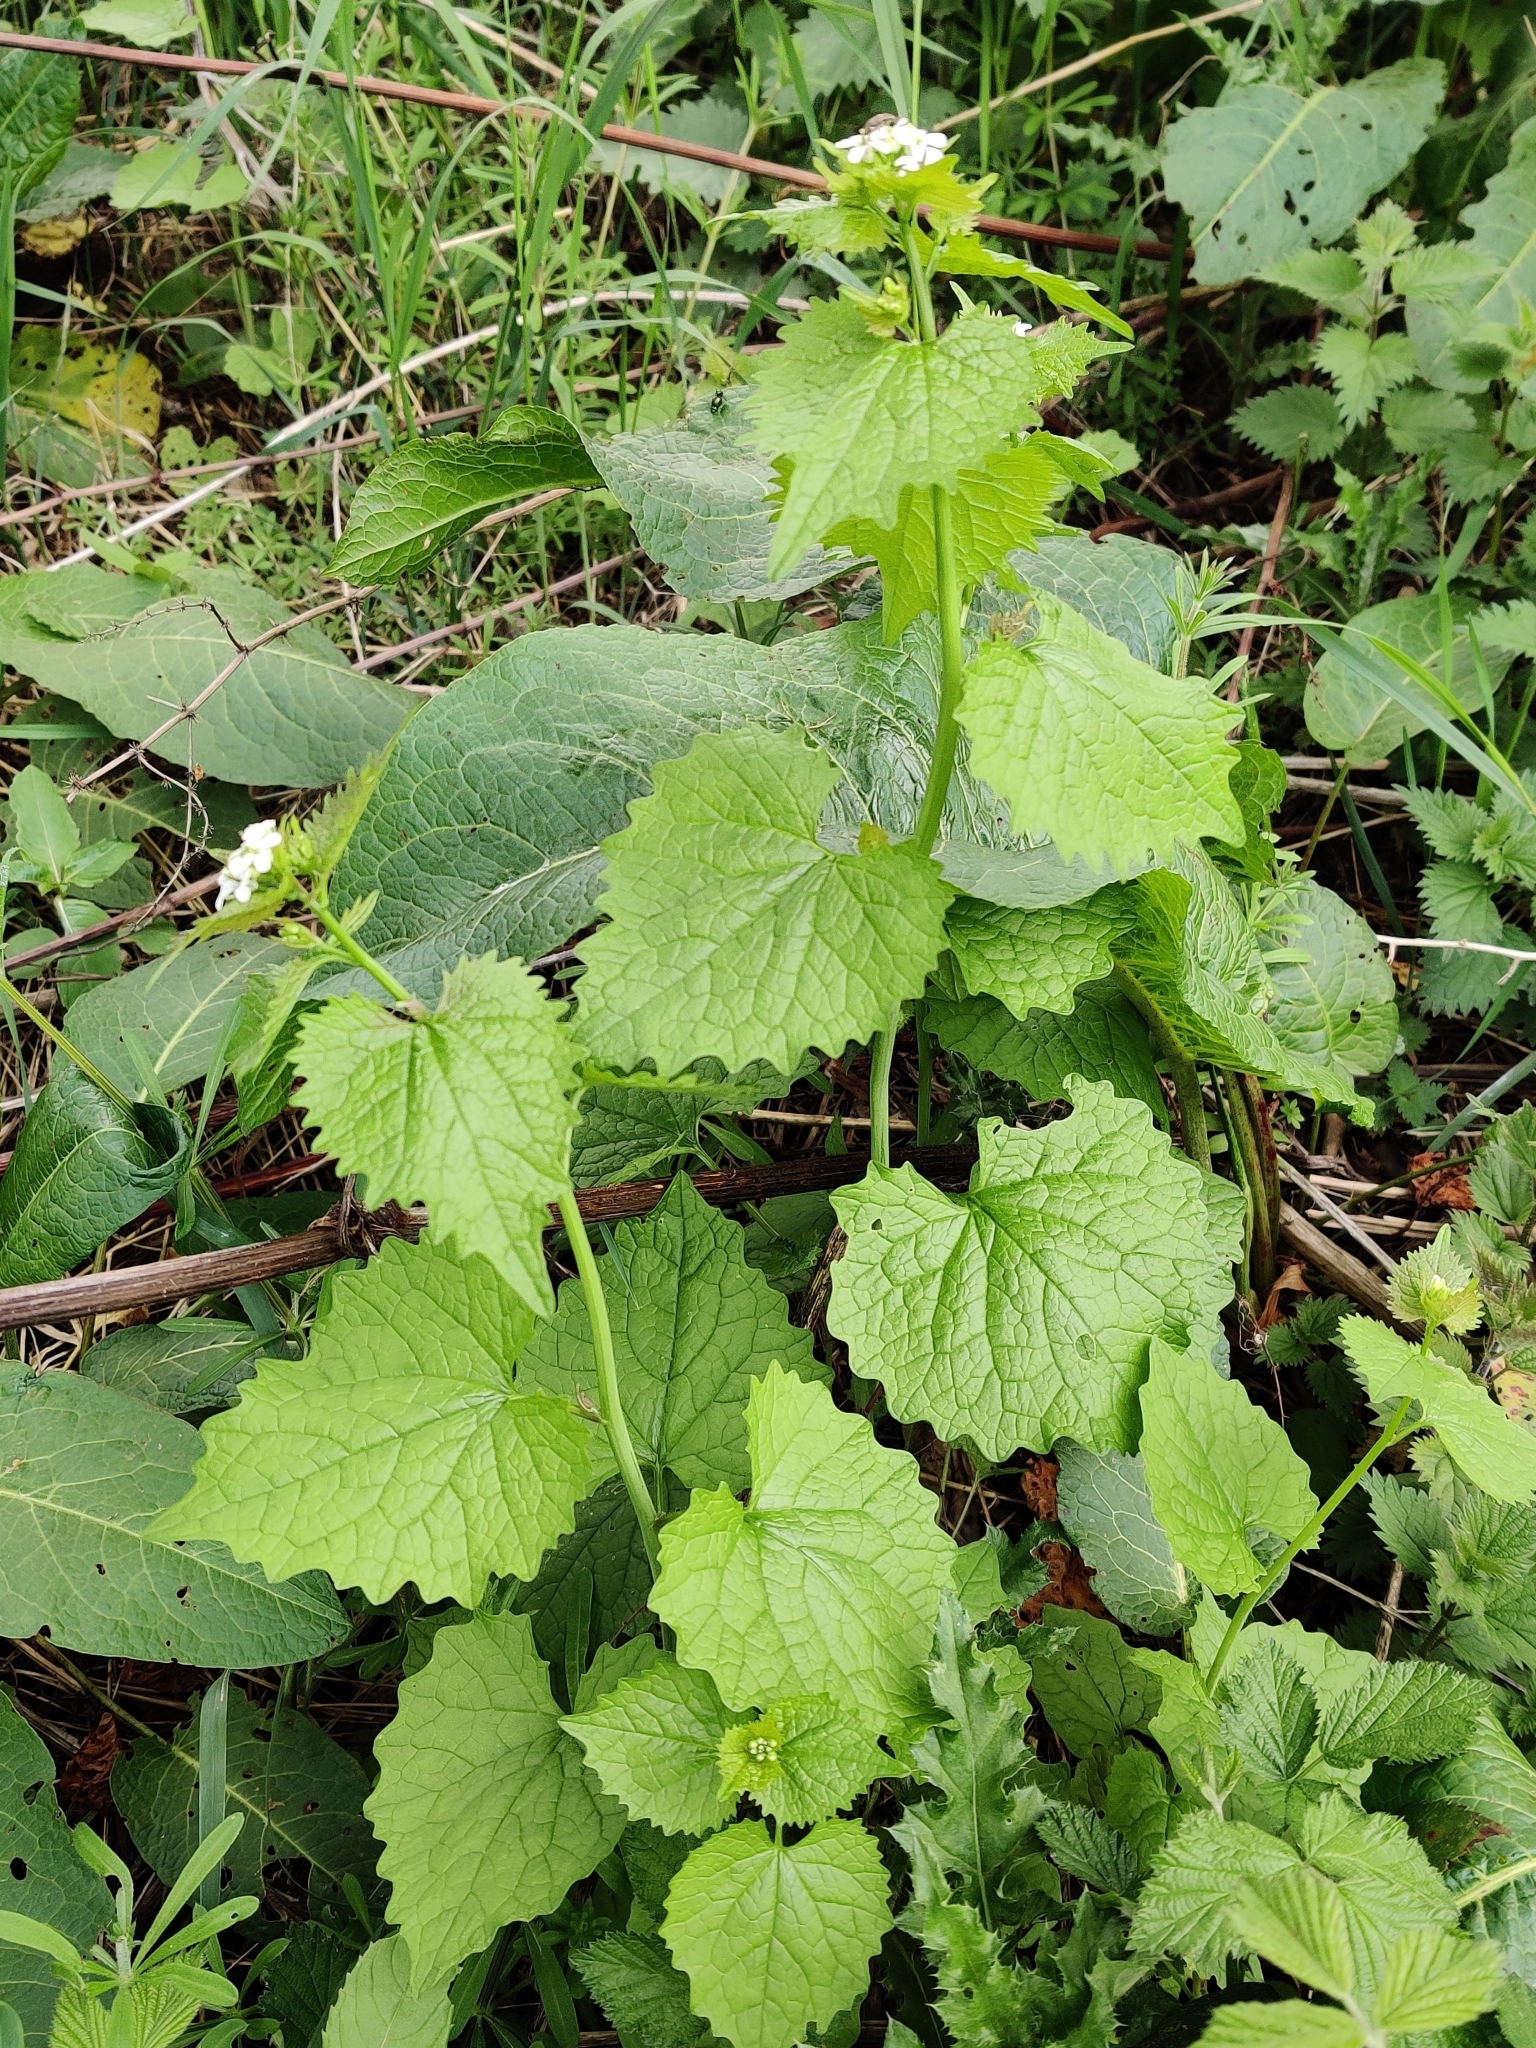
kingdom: Plantae
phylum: Tracheophyta
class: Magnoliopsida
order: Brassicales
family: Brassicaceae
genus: Alliaria
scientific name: Alliaria petiolata
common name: Garlic mustard
